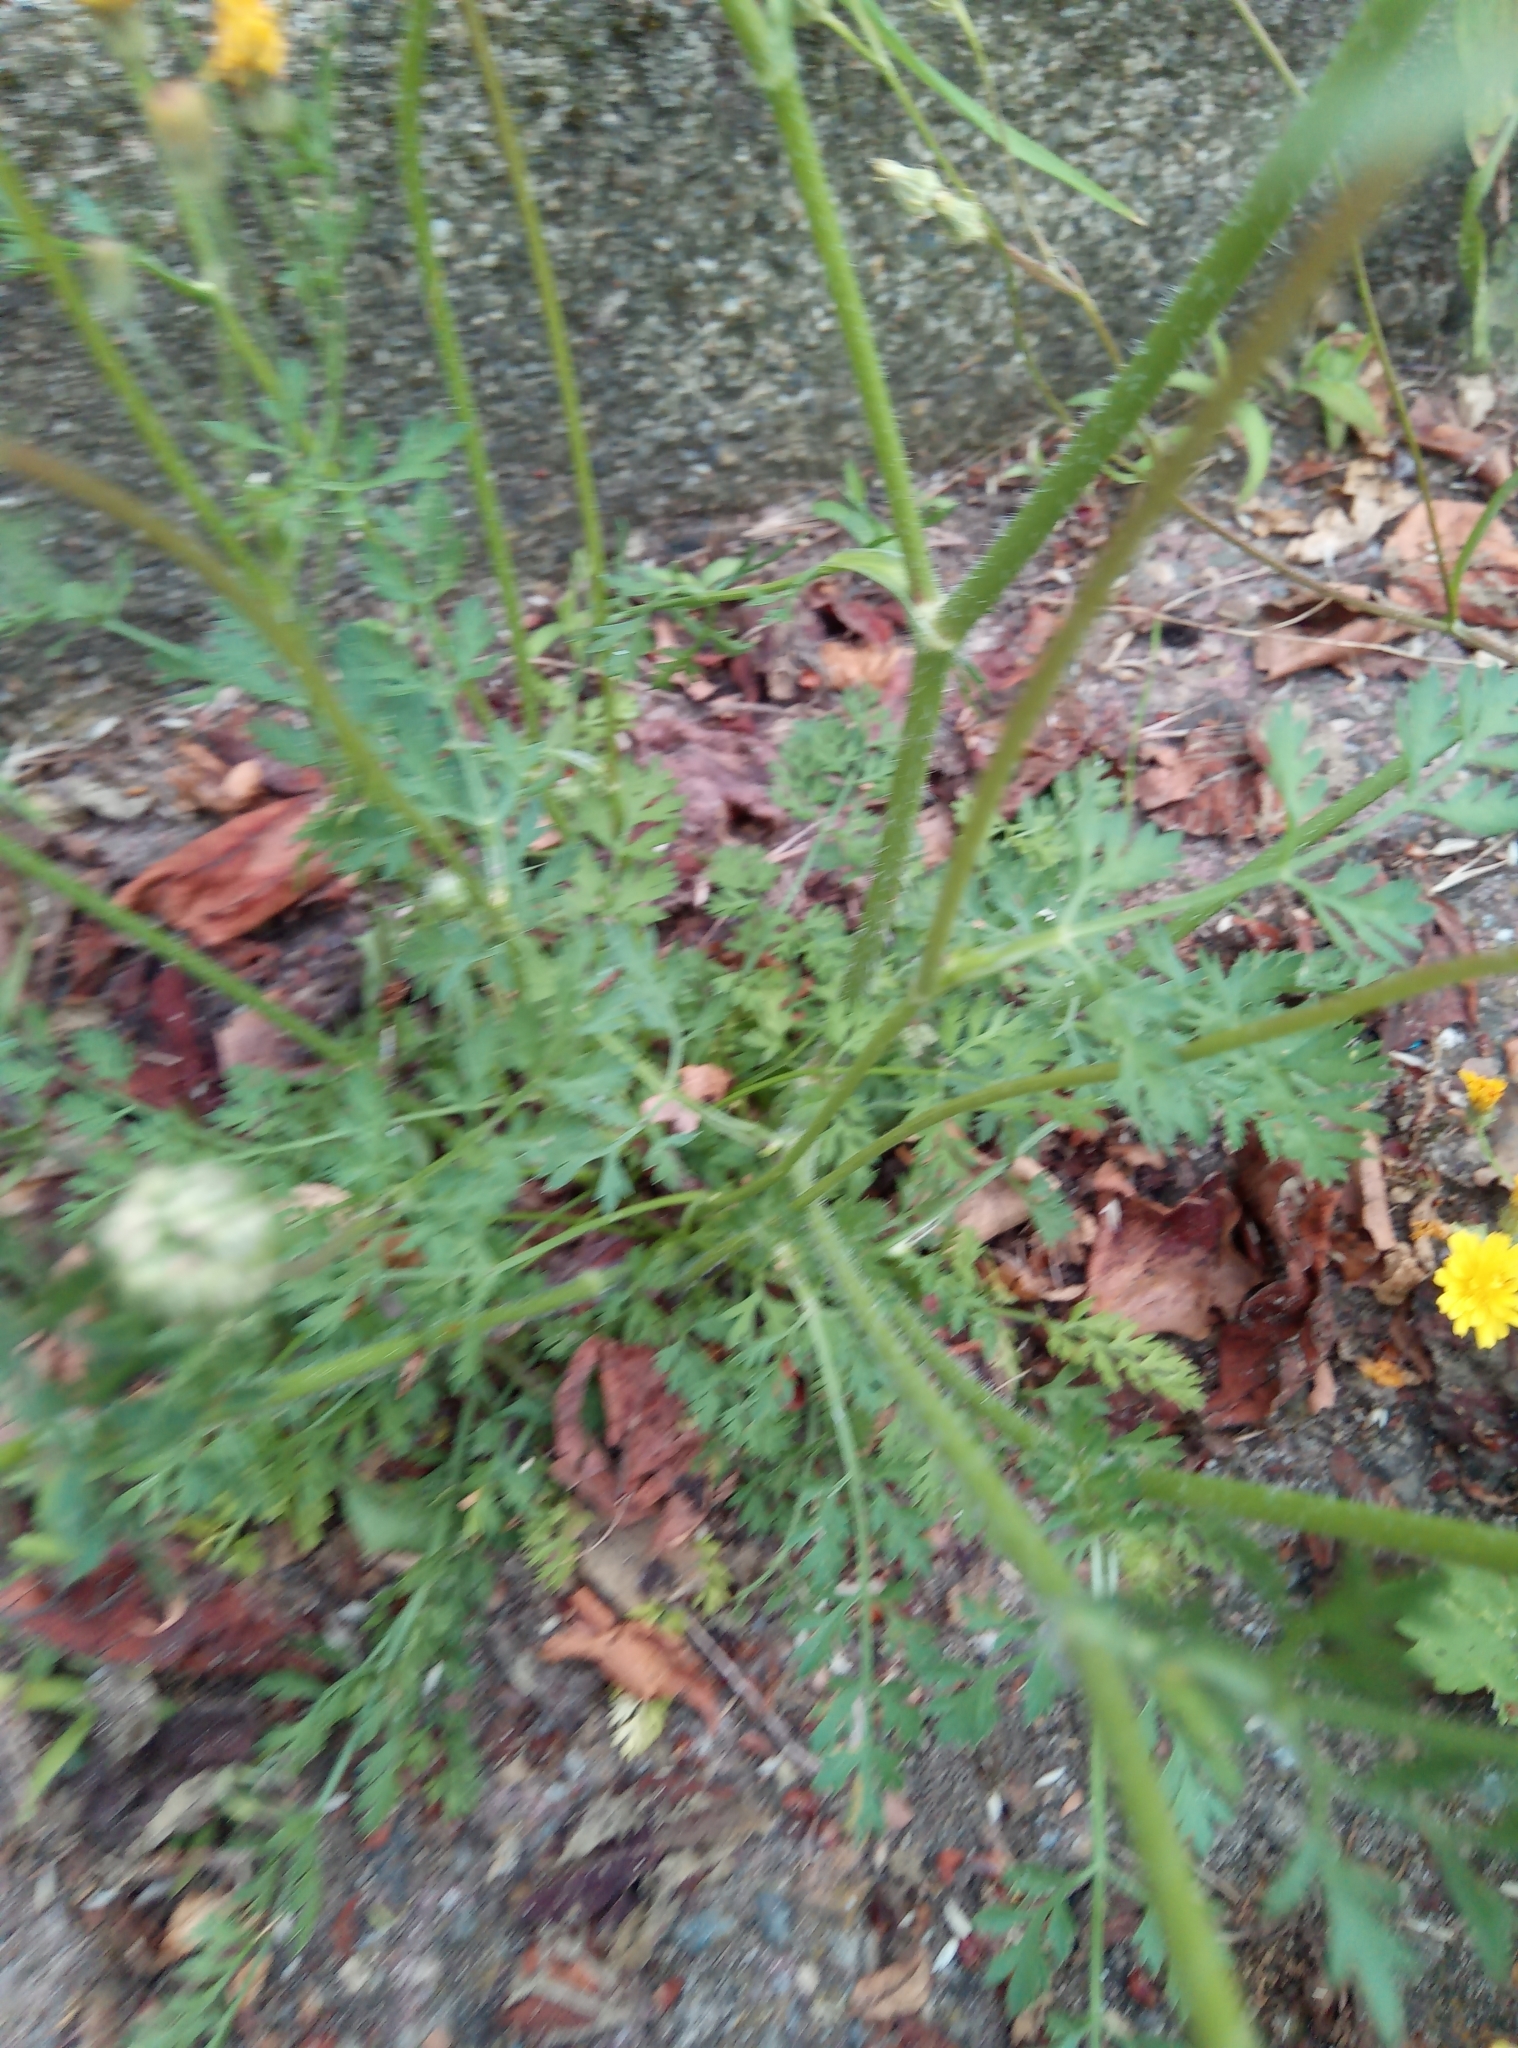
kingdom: Plantae
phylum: Tracheophyta
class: Magnoliopsida
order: Apiales
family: Apiaceae
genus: Daucus
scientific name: Daucus carota
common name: Wild carrot
